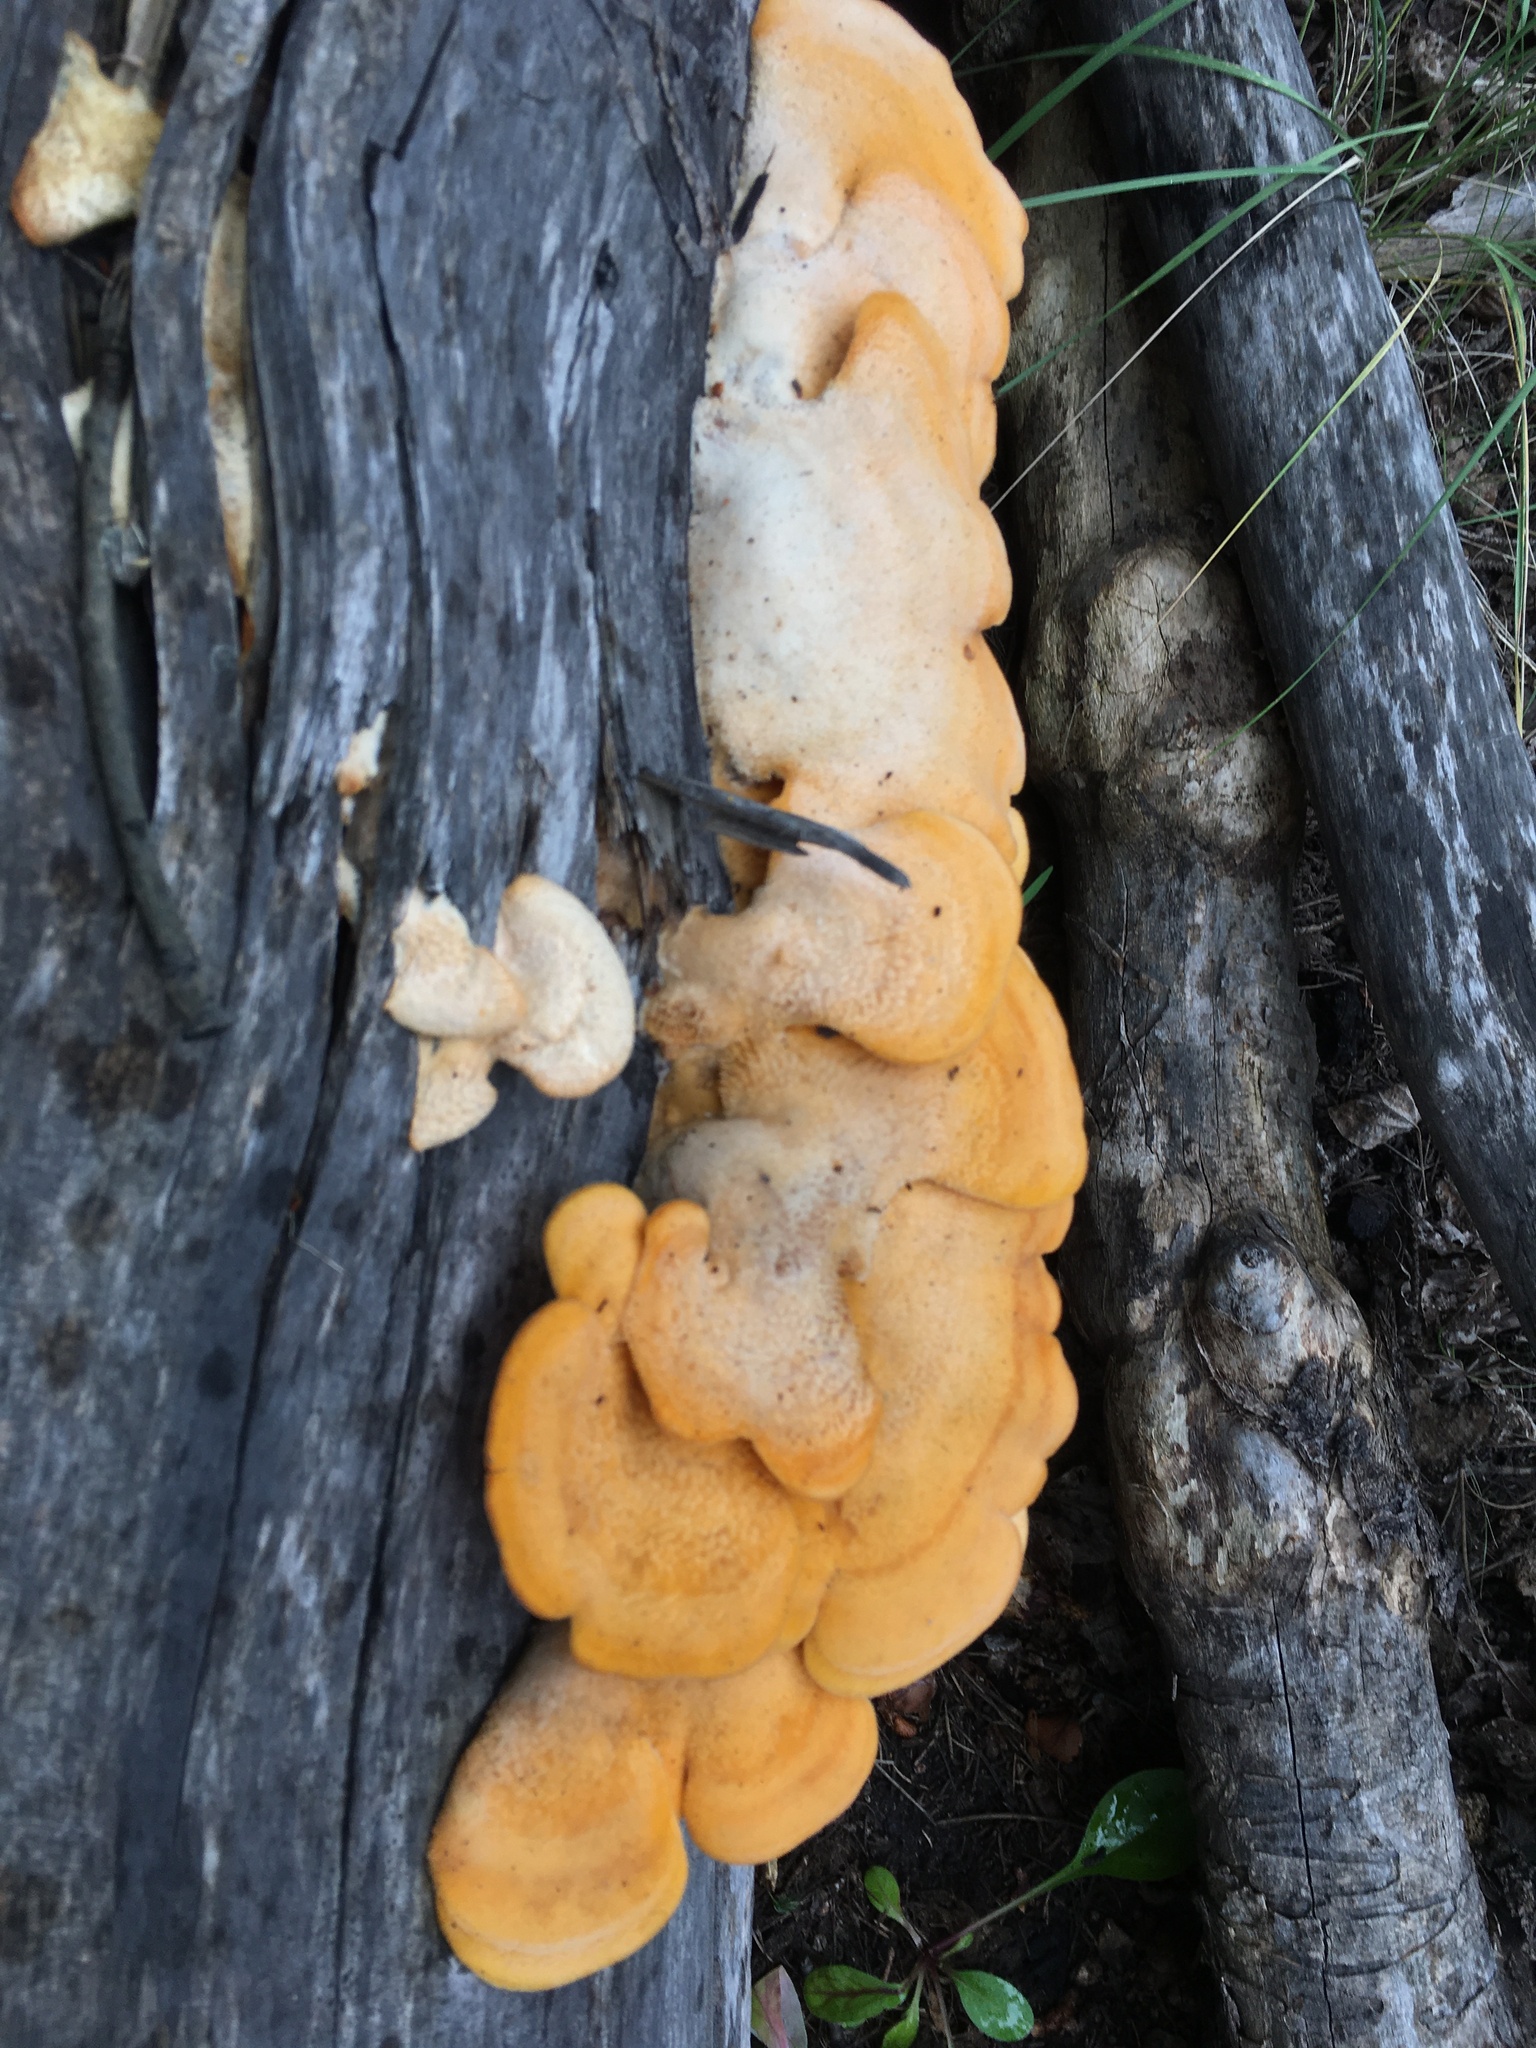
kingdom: Fungi
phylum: Basidiomycota
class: Agaricomycetes
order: Agaricales
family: Phyllotopsidaceae
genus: Phyllotopsis
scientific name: Phyllotopsis nidulans
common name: Orange mock oyster
